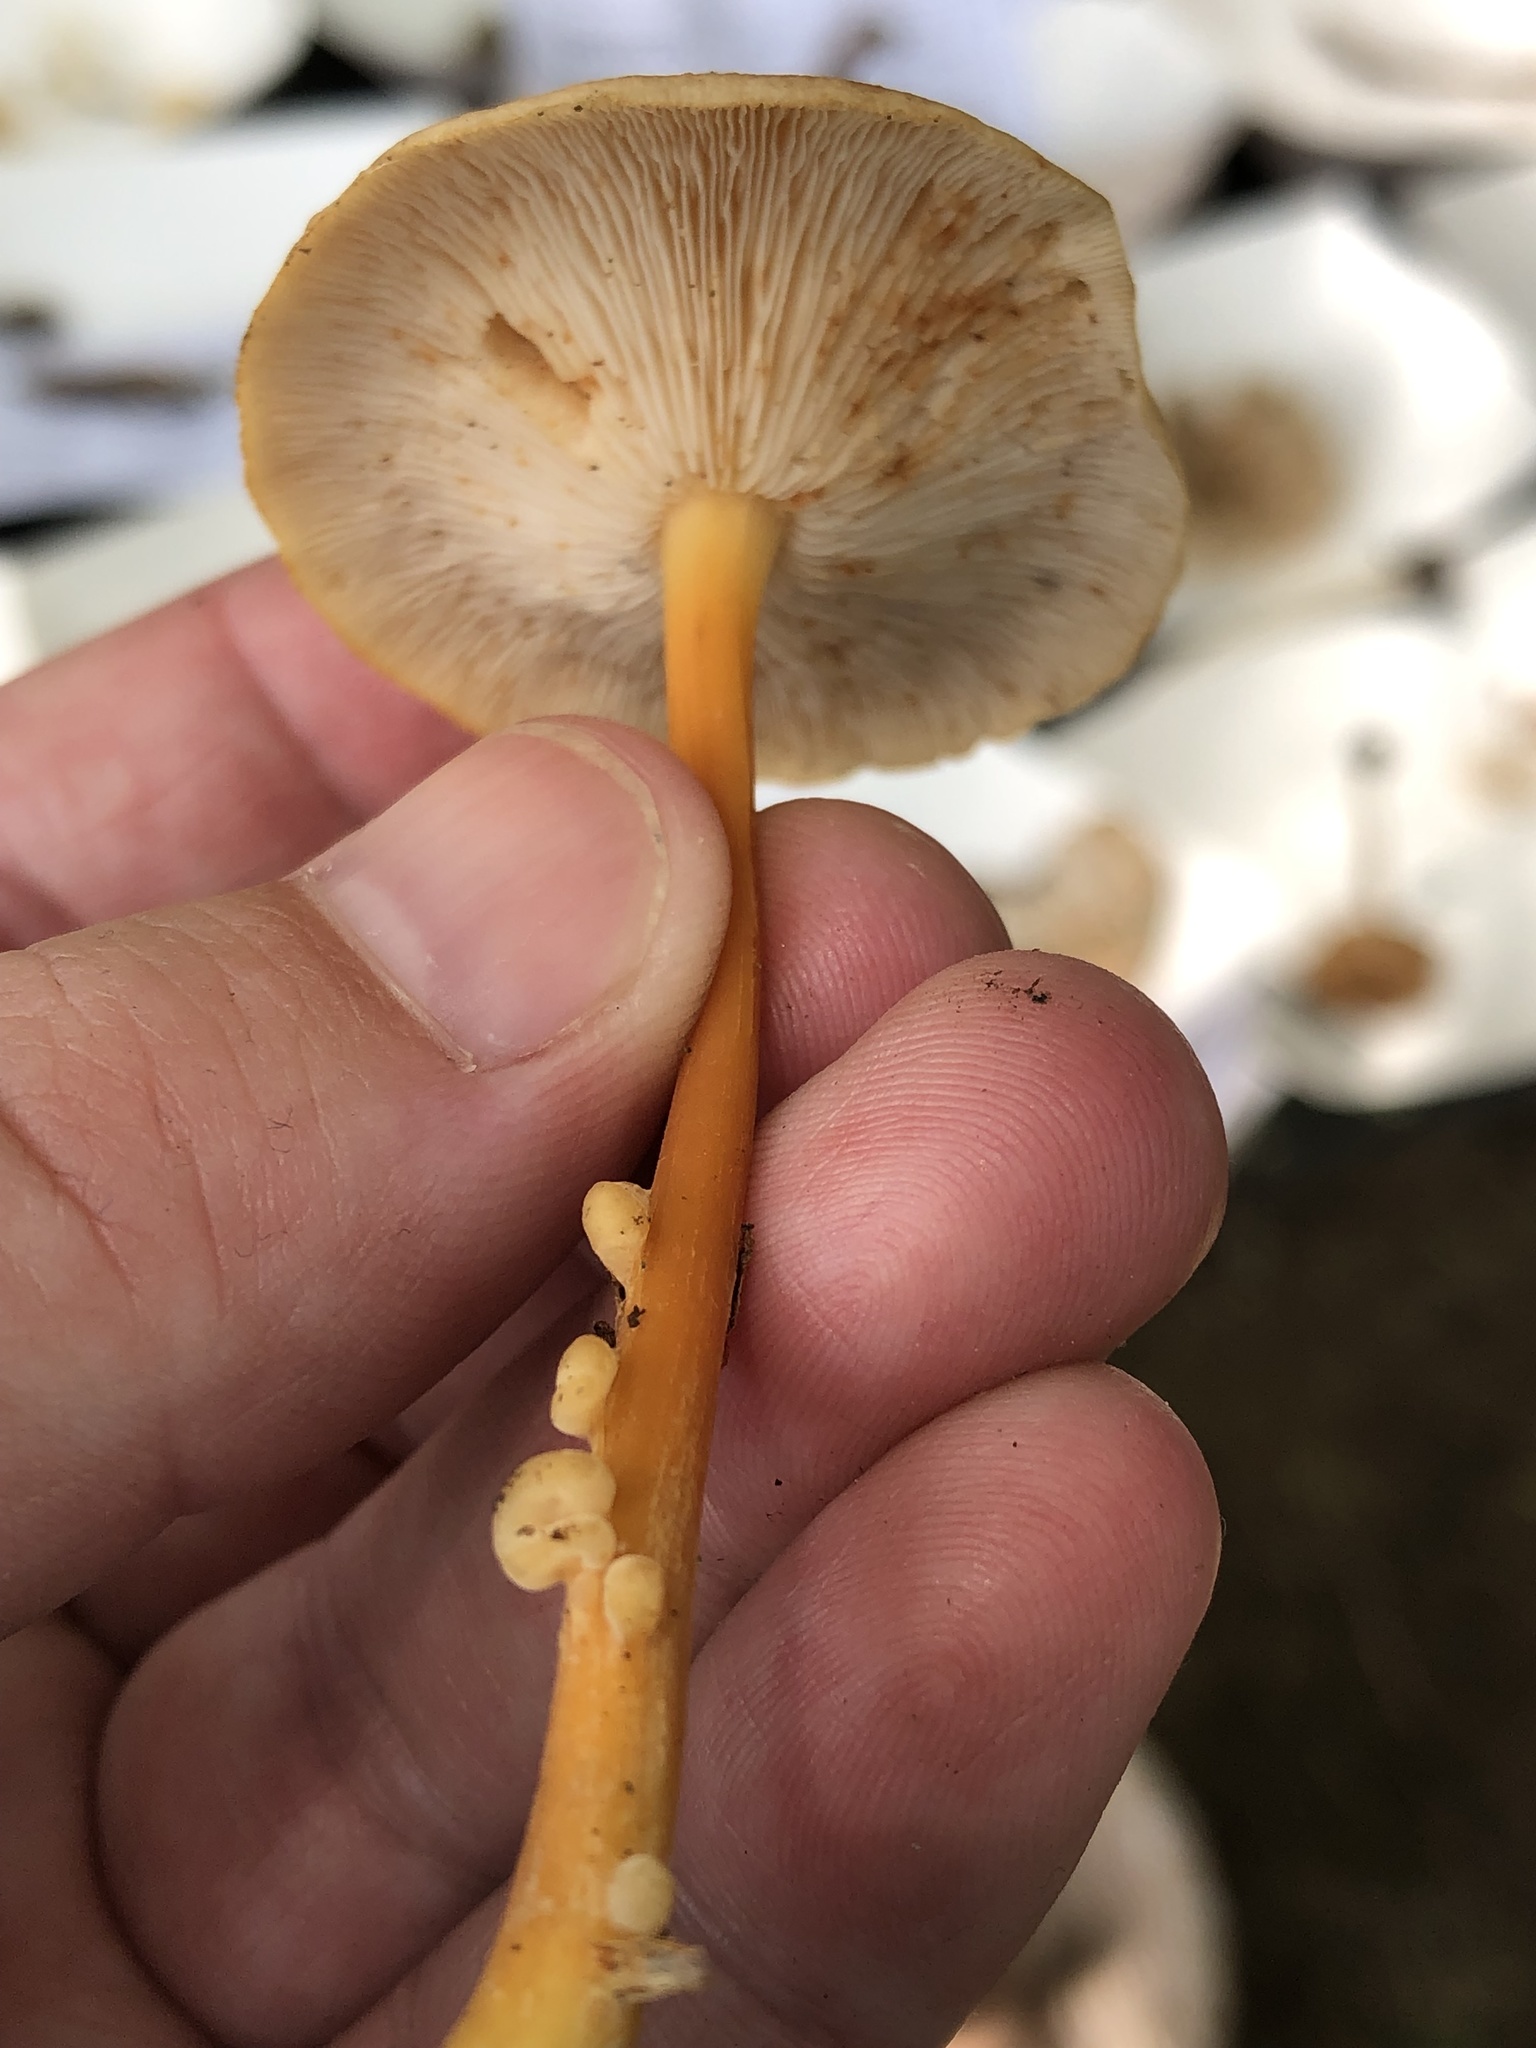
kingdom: Fungi
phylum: Basidiomycota
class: Agaricomycetes
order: Agaricales
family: Omphalotaceae
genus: Gymnopus
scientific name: Gymnopus dryophilus
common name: Penny top
